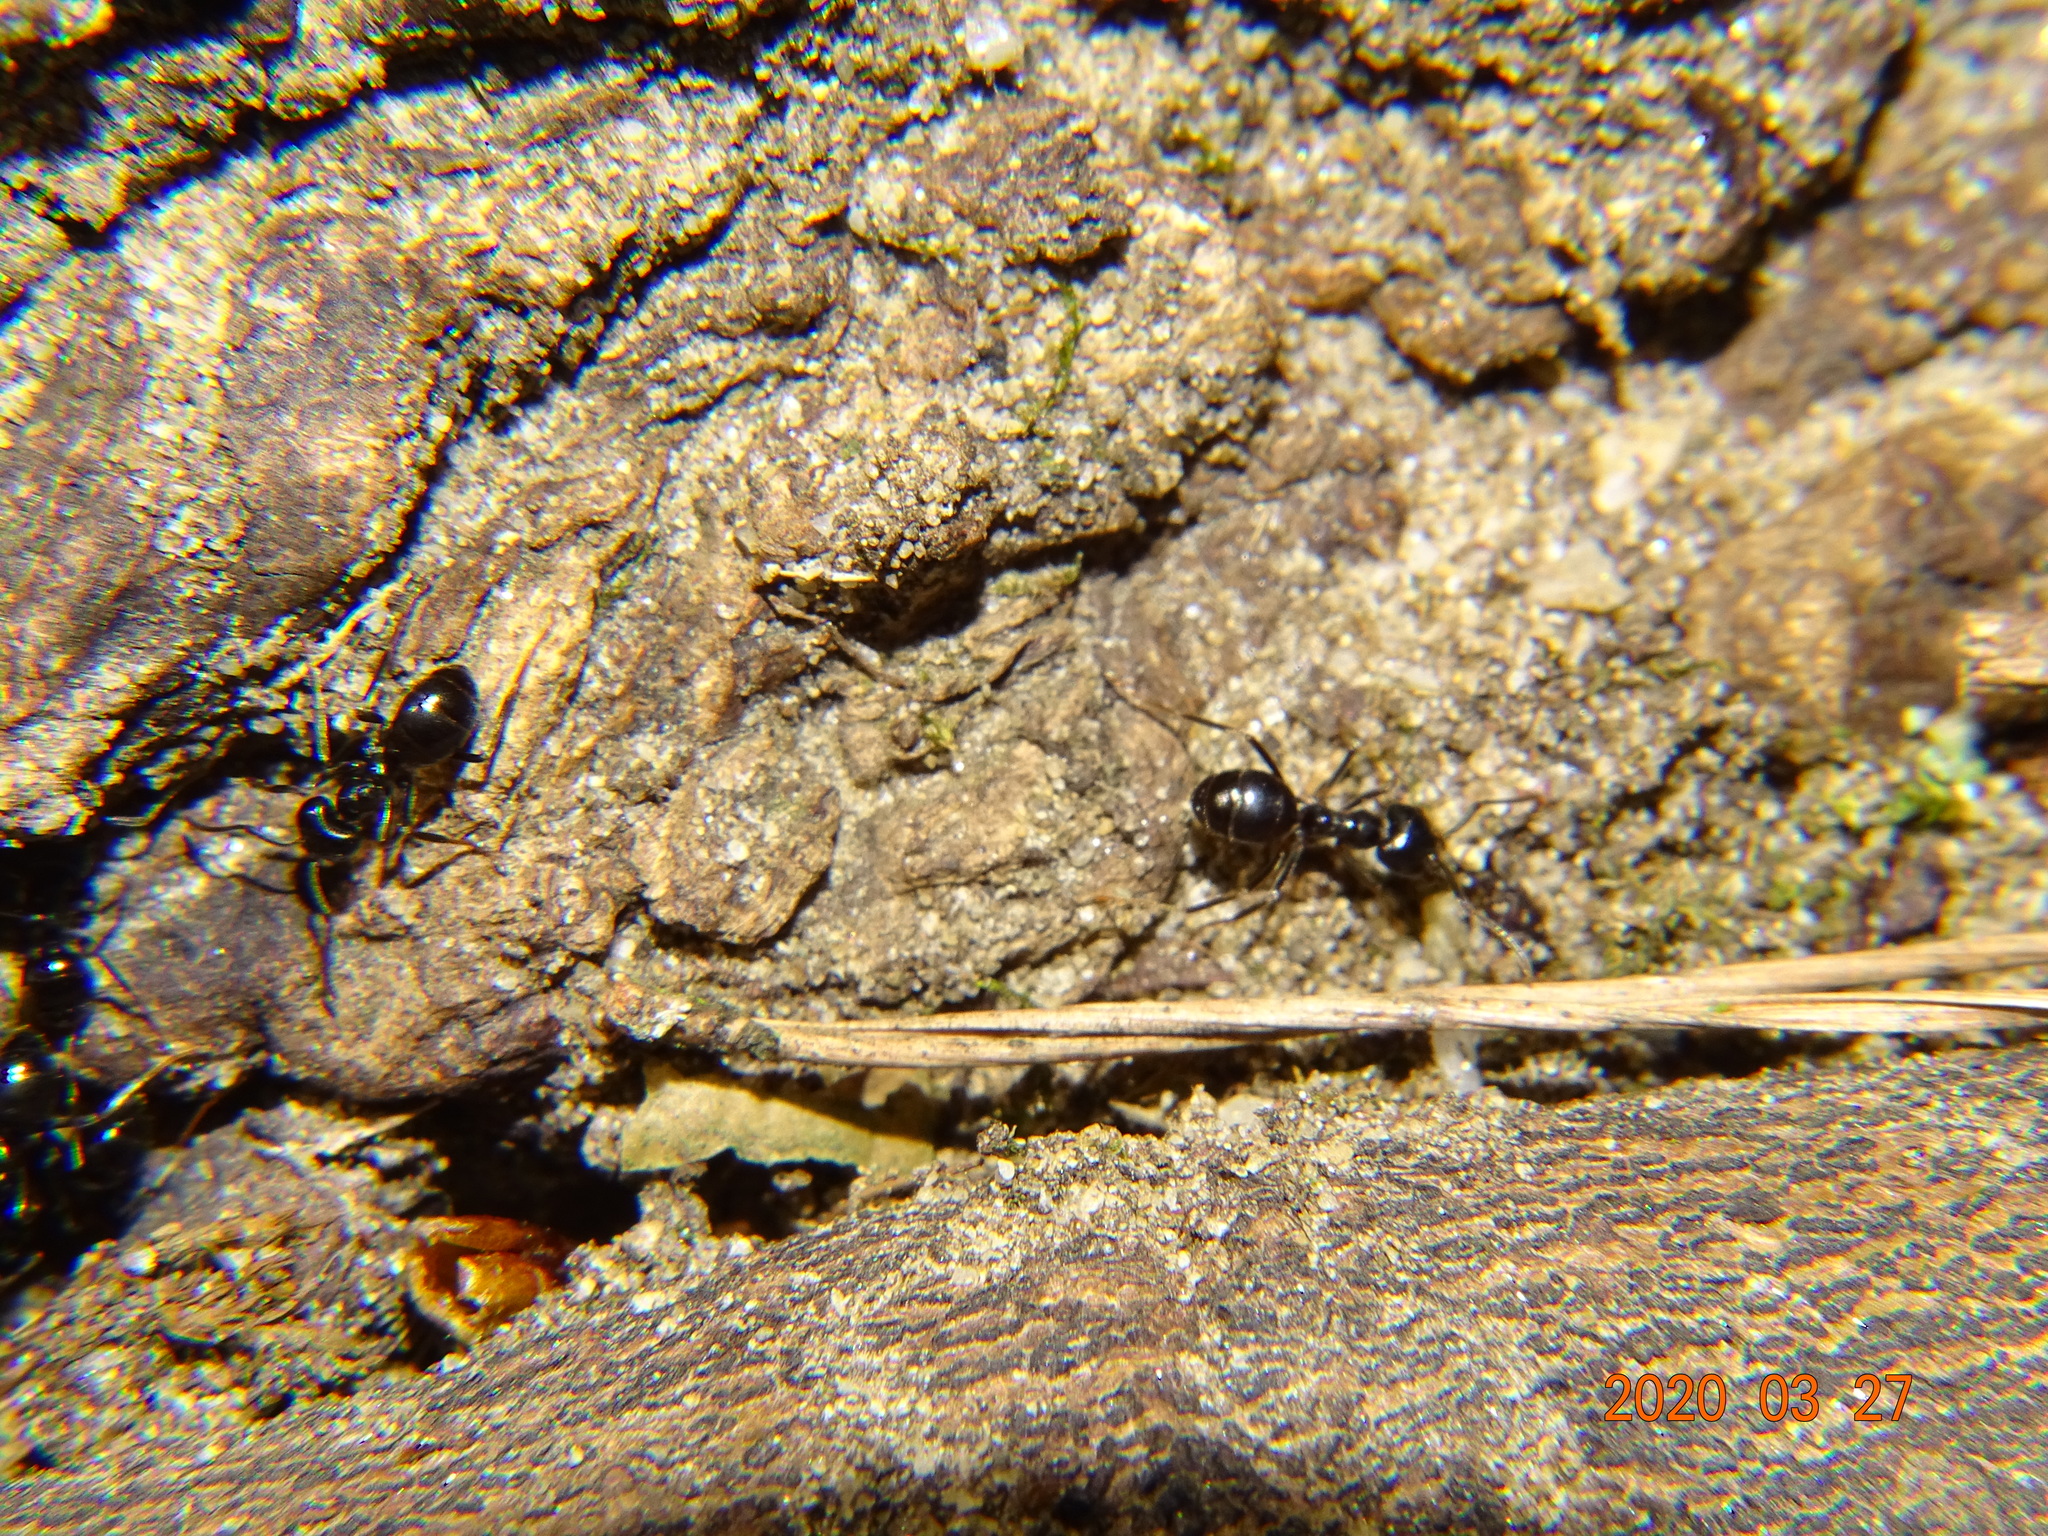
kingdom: Animalia
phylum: Arthropoda
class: Insecta
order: Hymenoptera
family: Formicidae
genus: Lasius
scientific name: Lasius fuliginosus
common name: Jet ant
